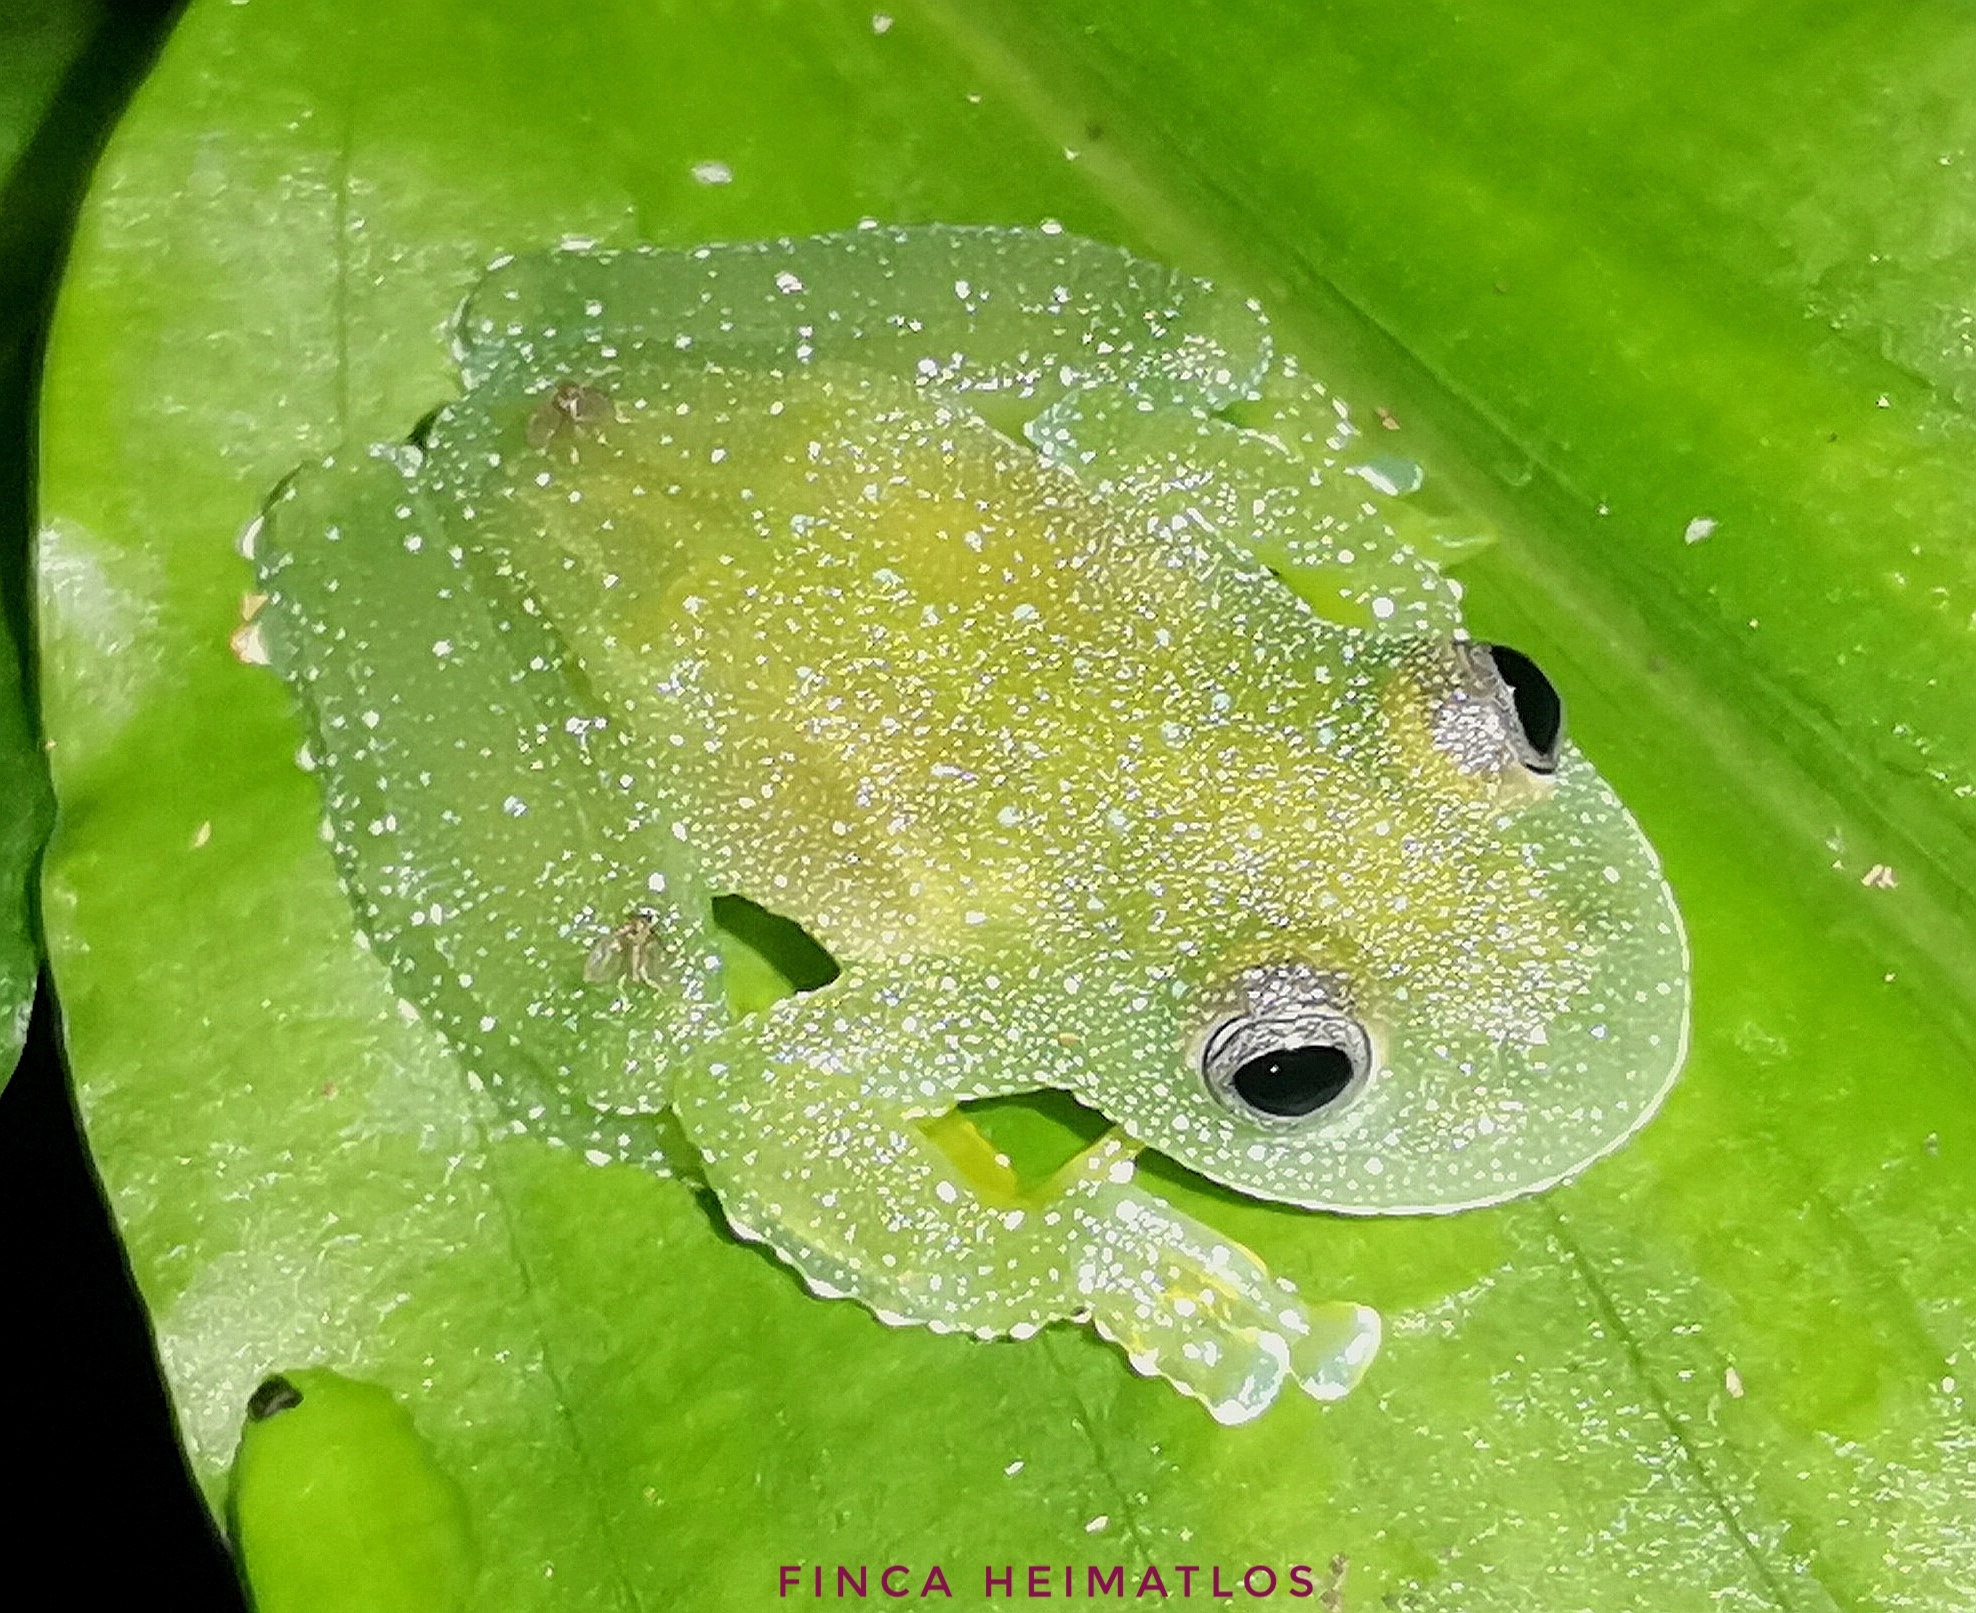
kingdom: Animalia
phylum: Chordata
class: Amphibia
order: Anura
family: Centrolenidae
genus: Cochranella
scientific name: Cochranella resplendens
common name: Resplendent cochran frog
